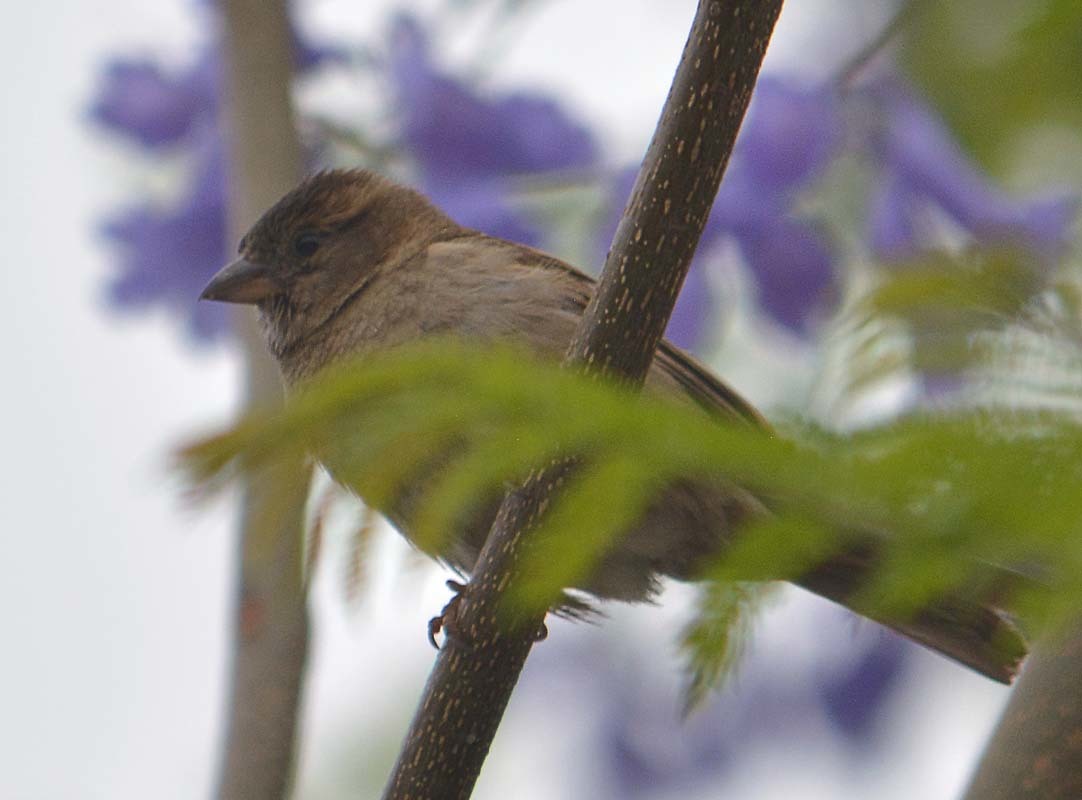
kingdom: Animalia
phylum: Chordata
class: Aves
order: Passeriformes
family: Passeridae
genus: Passer
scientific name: Passer domesticus
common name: House sparrow
